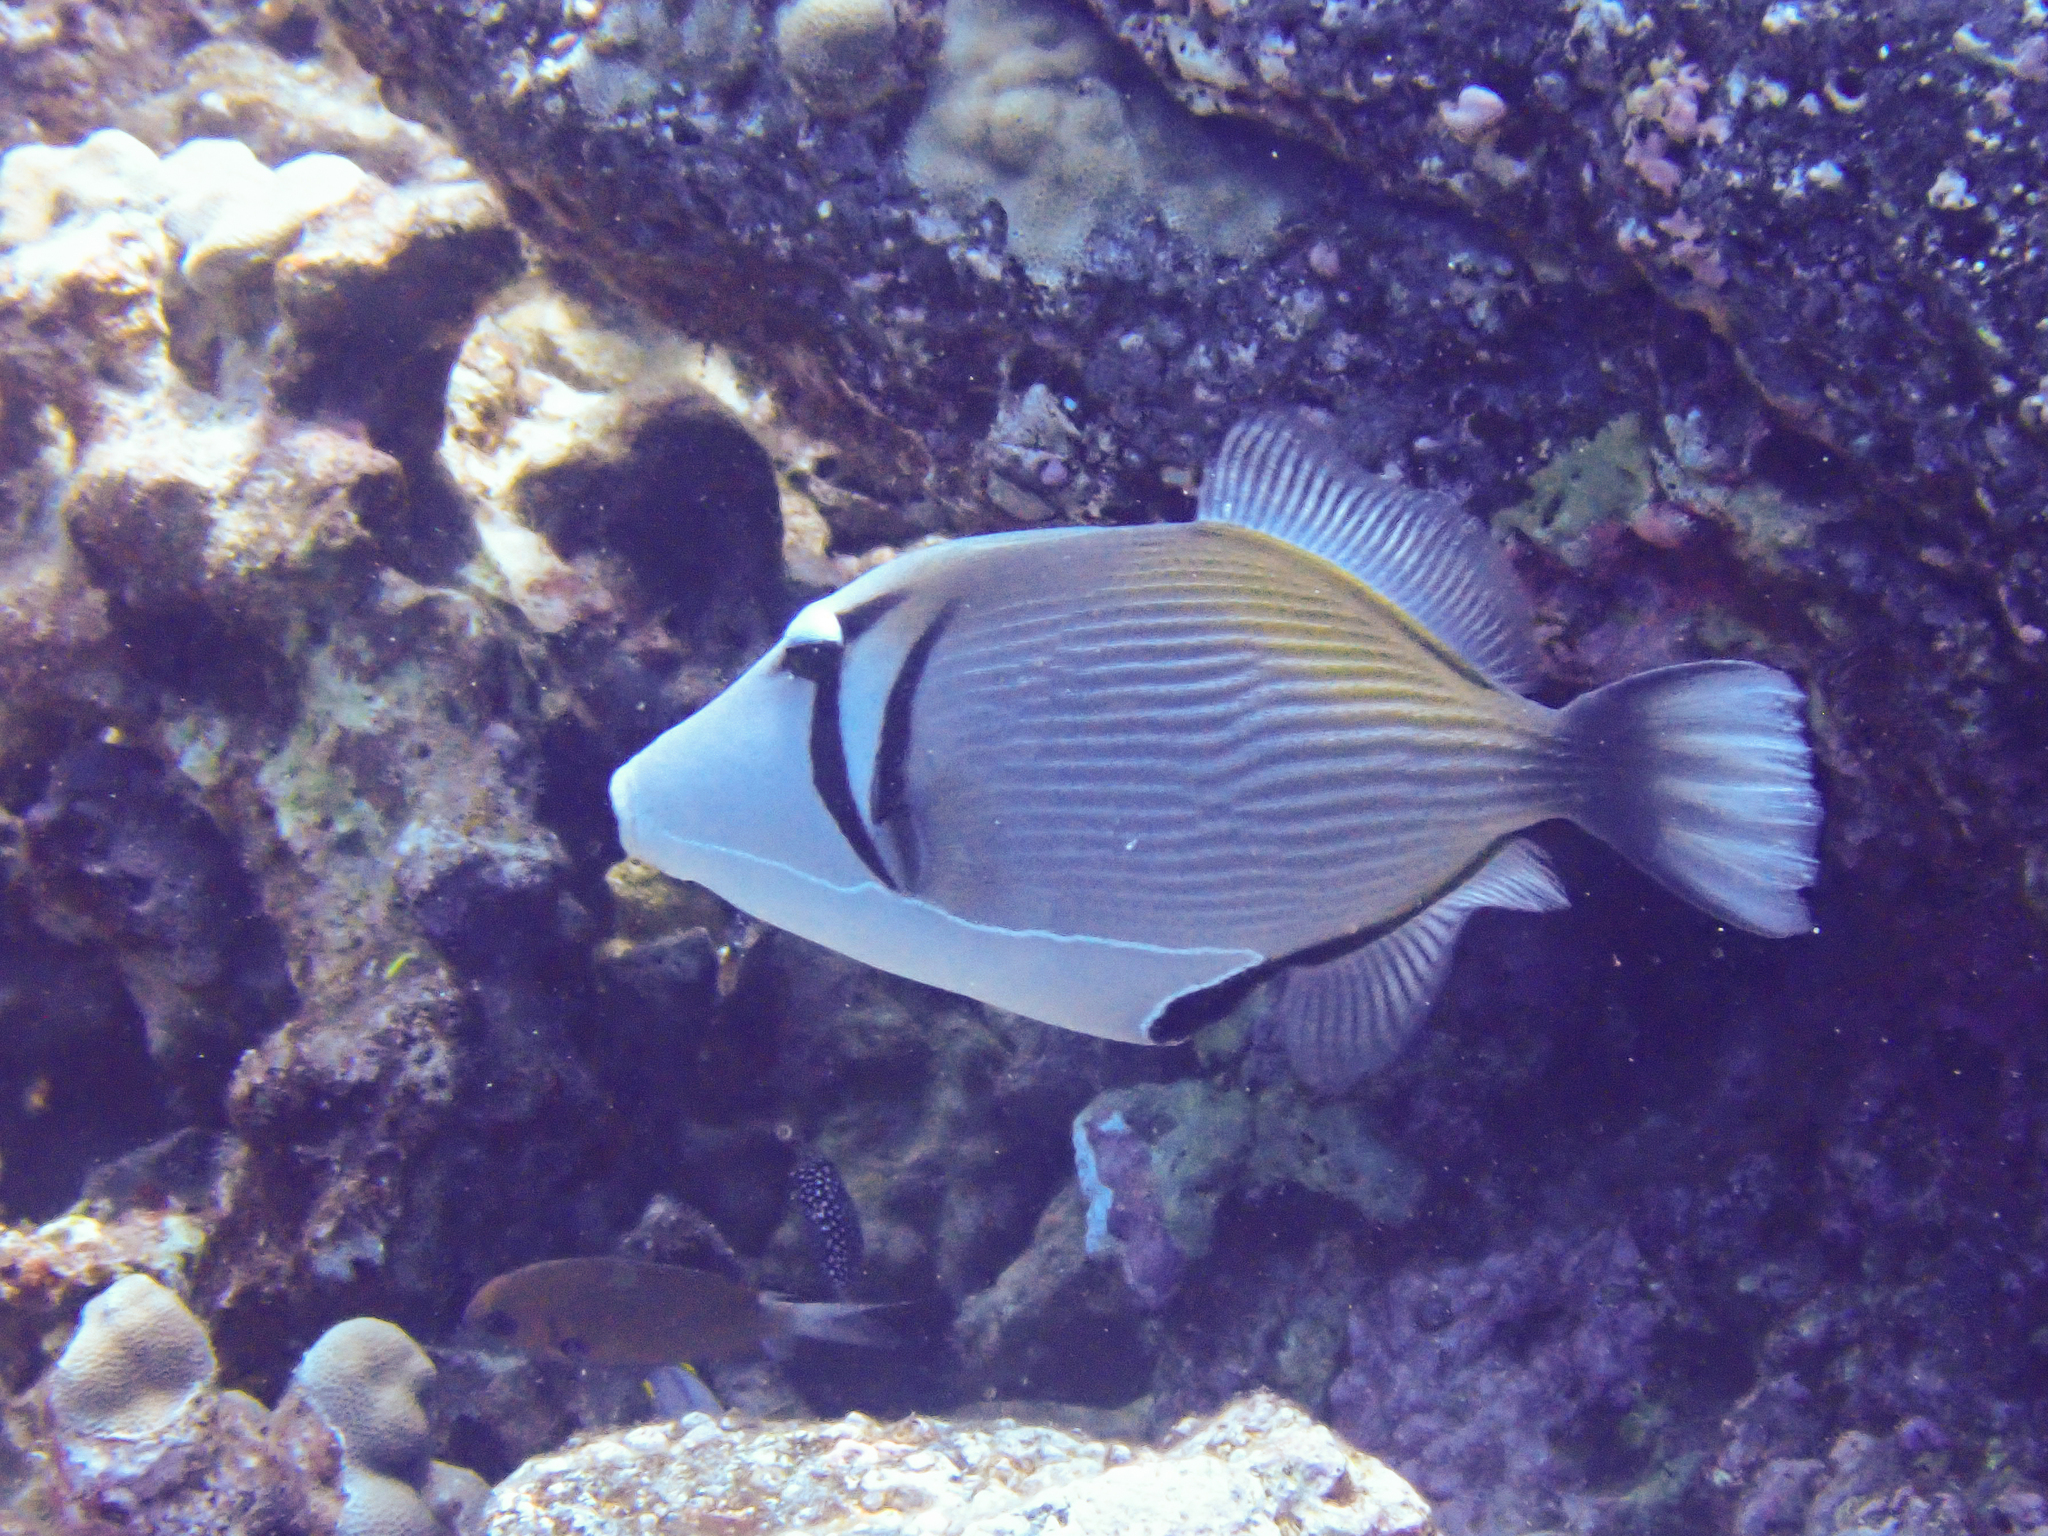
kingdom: Animalia
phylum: Chordata
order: Tetraodontiformes
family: Balistidae
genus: Sufflamen
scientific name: Sufflamen bursa
